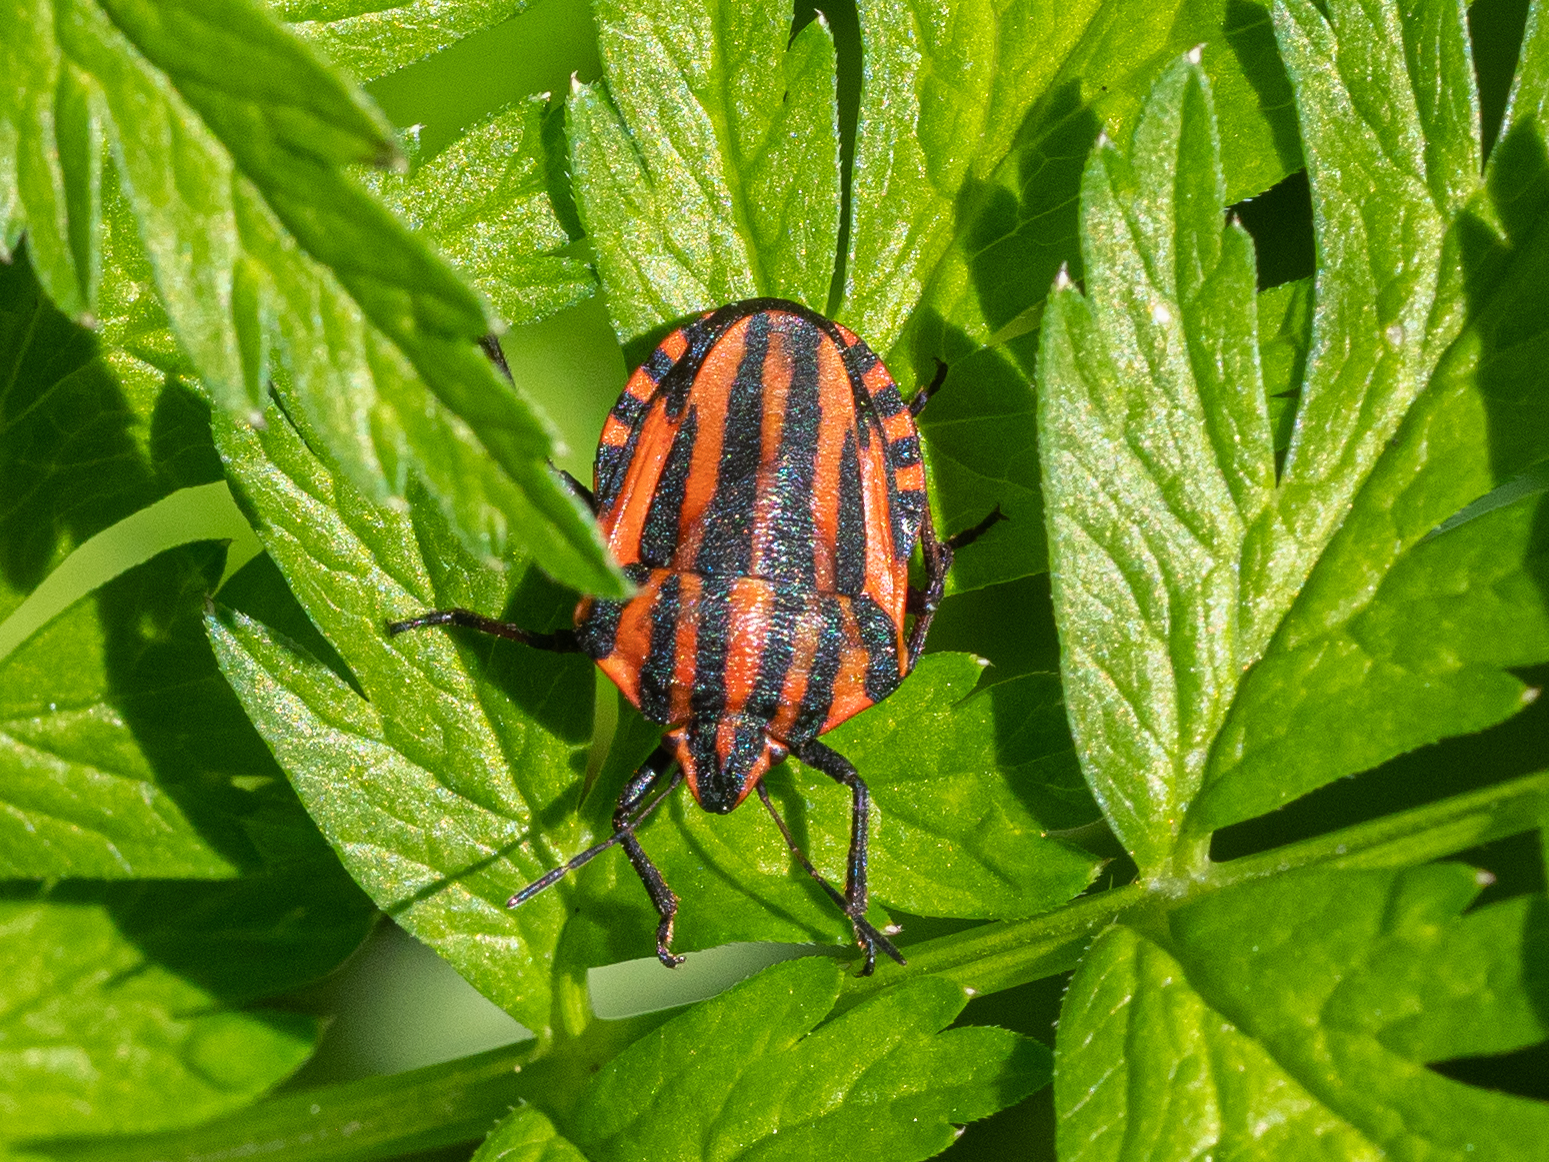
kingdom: Animalia
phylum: Arthropoda
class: Insecta
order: Hemiptera
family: Pentatomidae
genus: Graphosoma
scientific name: Graphosoma italicum
